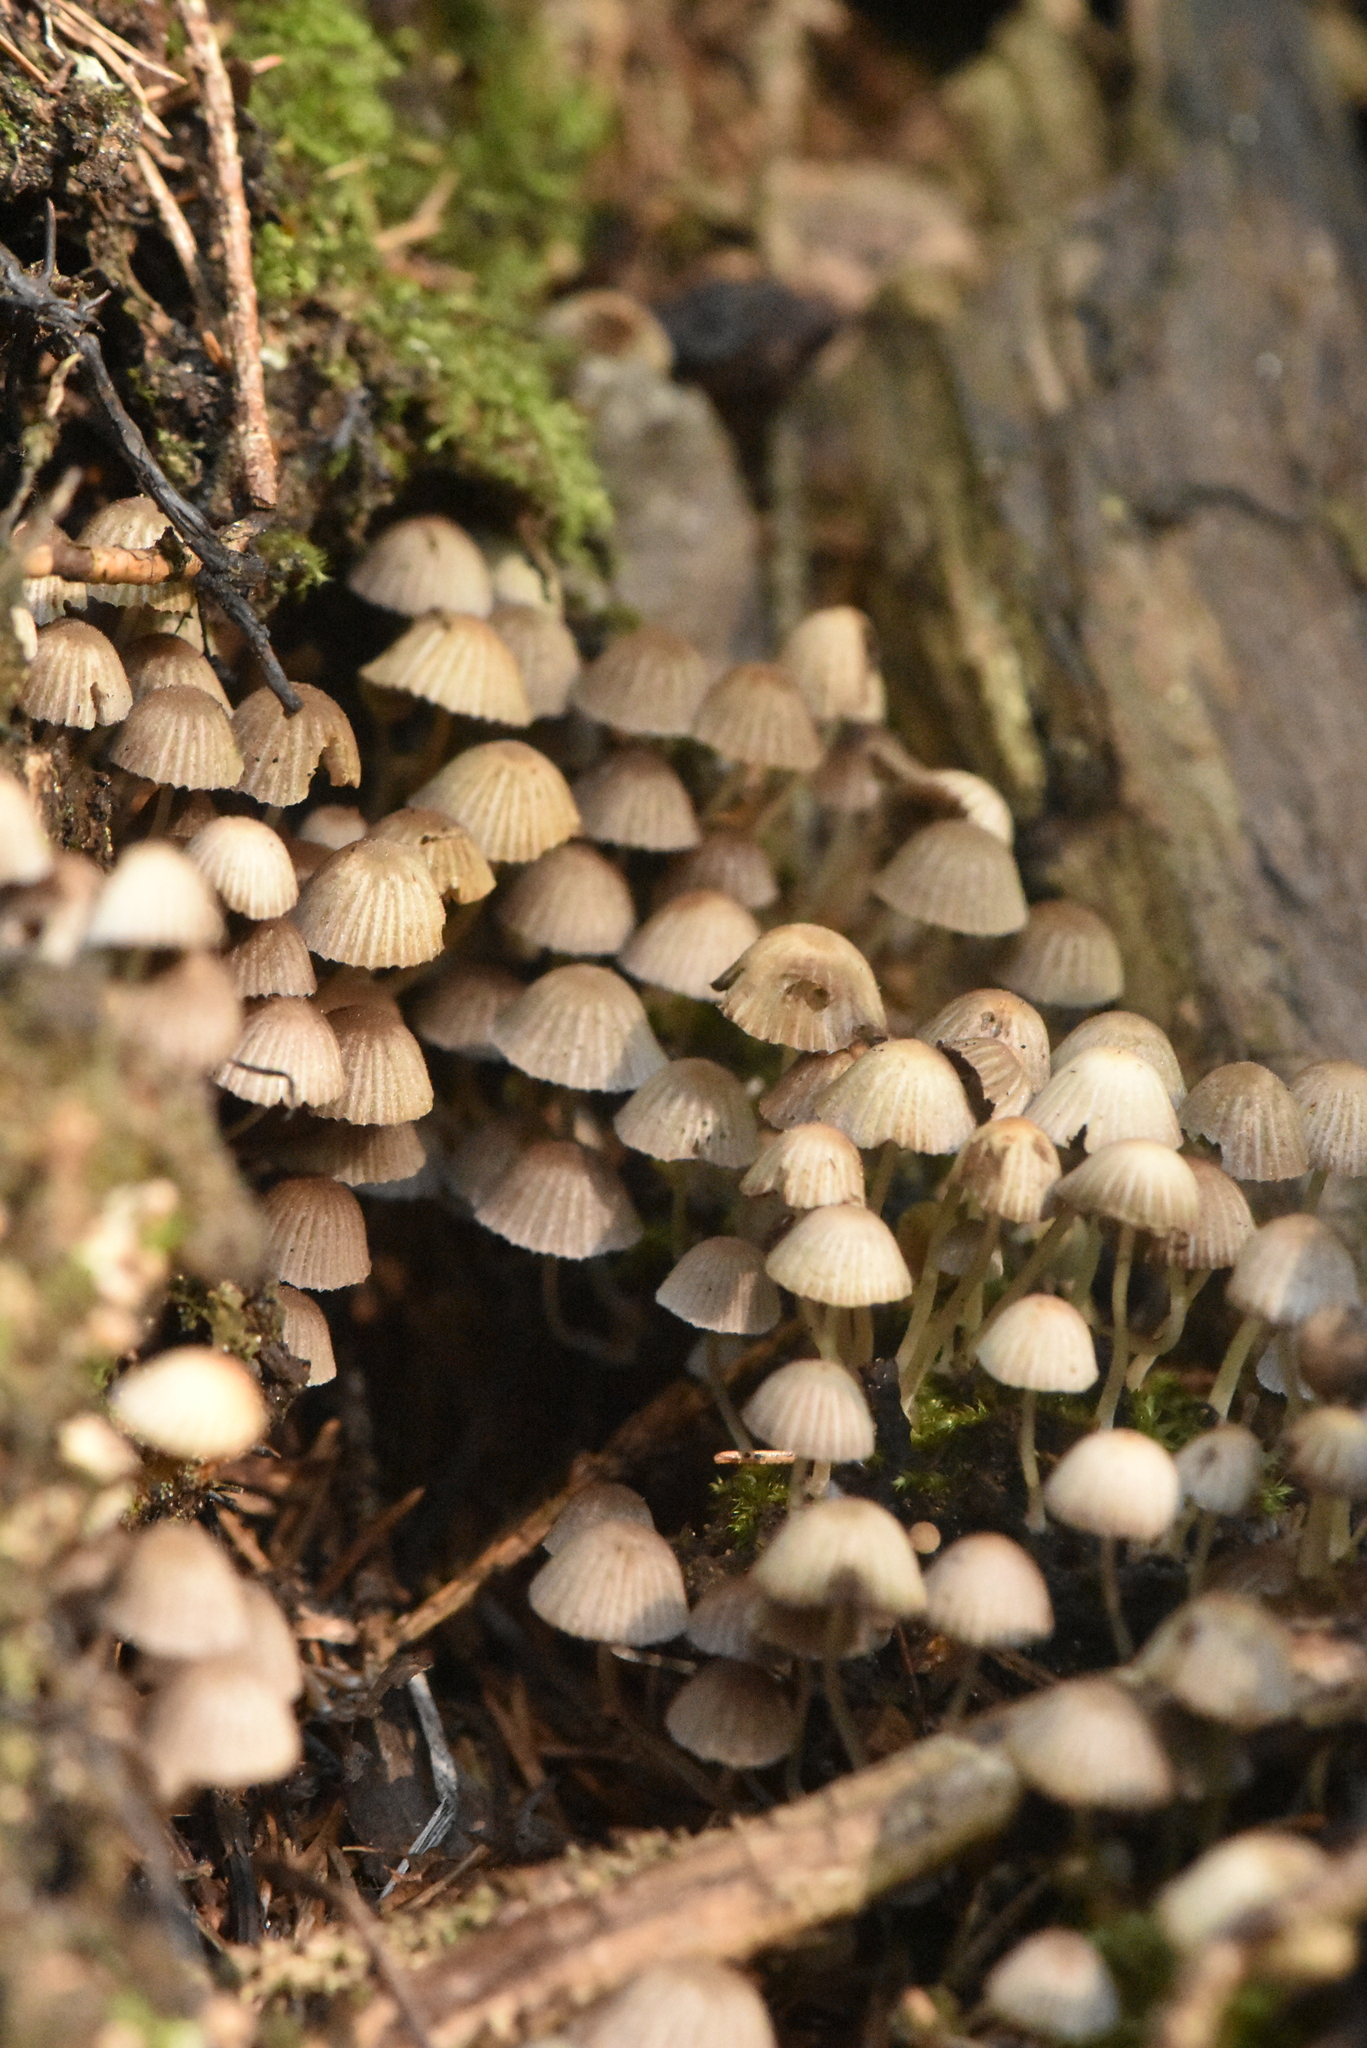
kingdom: Fungi
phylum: Basidiomycota
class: Agaricomycetes
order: Agaricales
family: Psathyrellaceae
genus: Coprinellus
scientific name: Coprinellus disseminatus
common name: Fairies' bonnets
